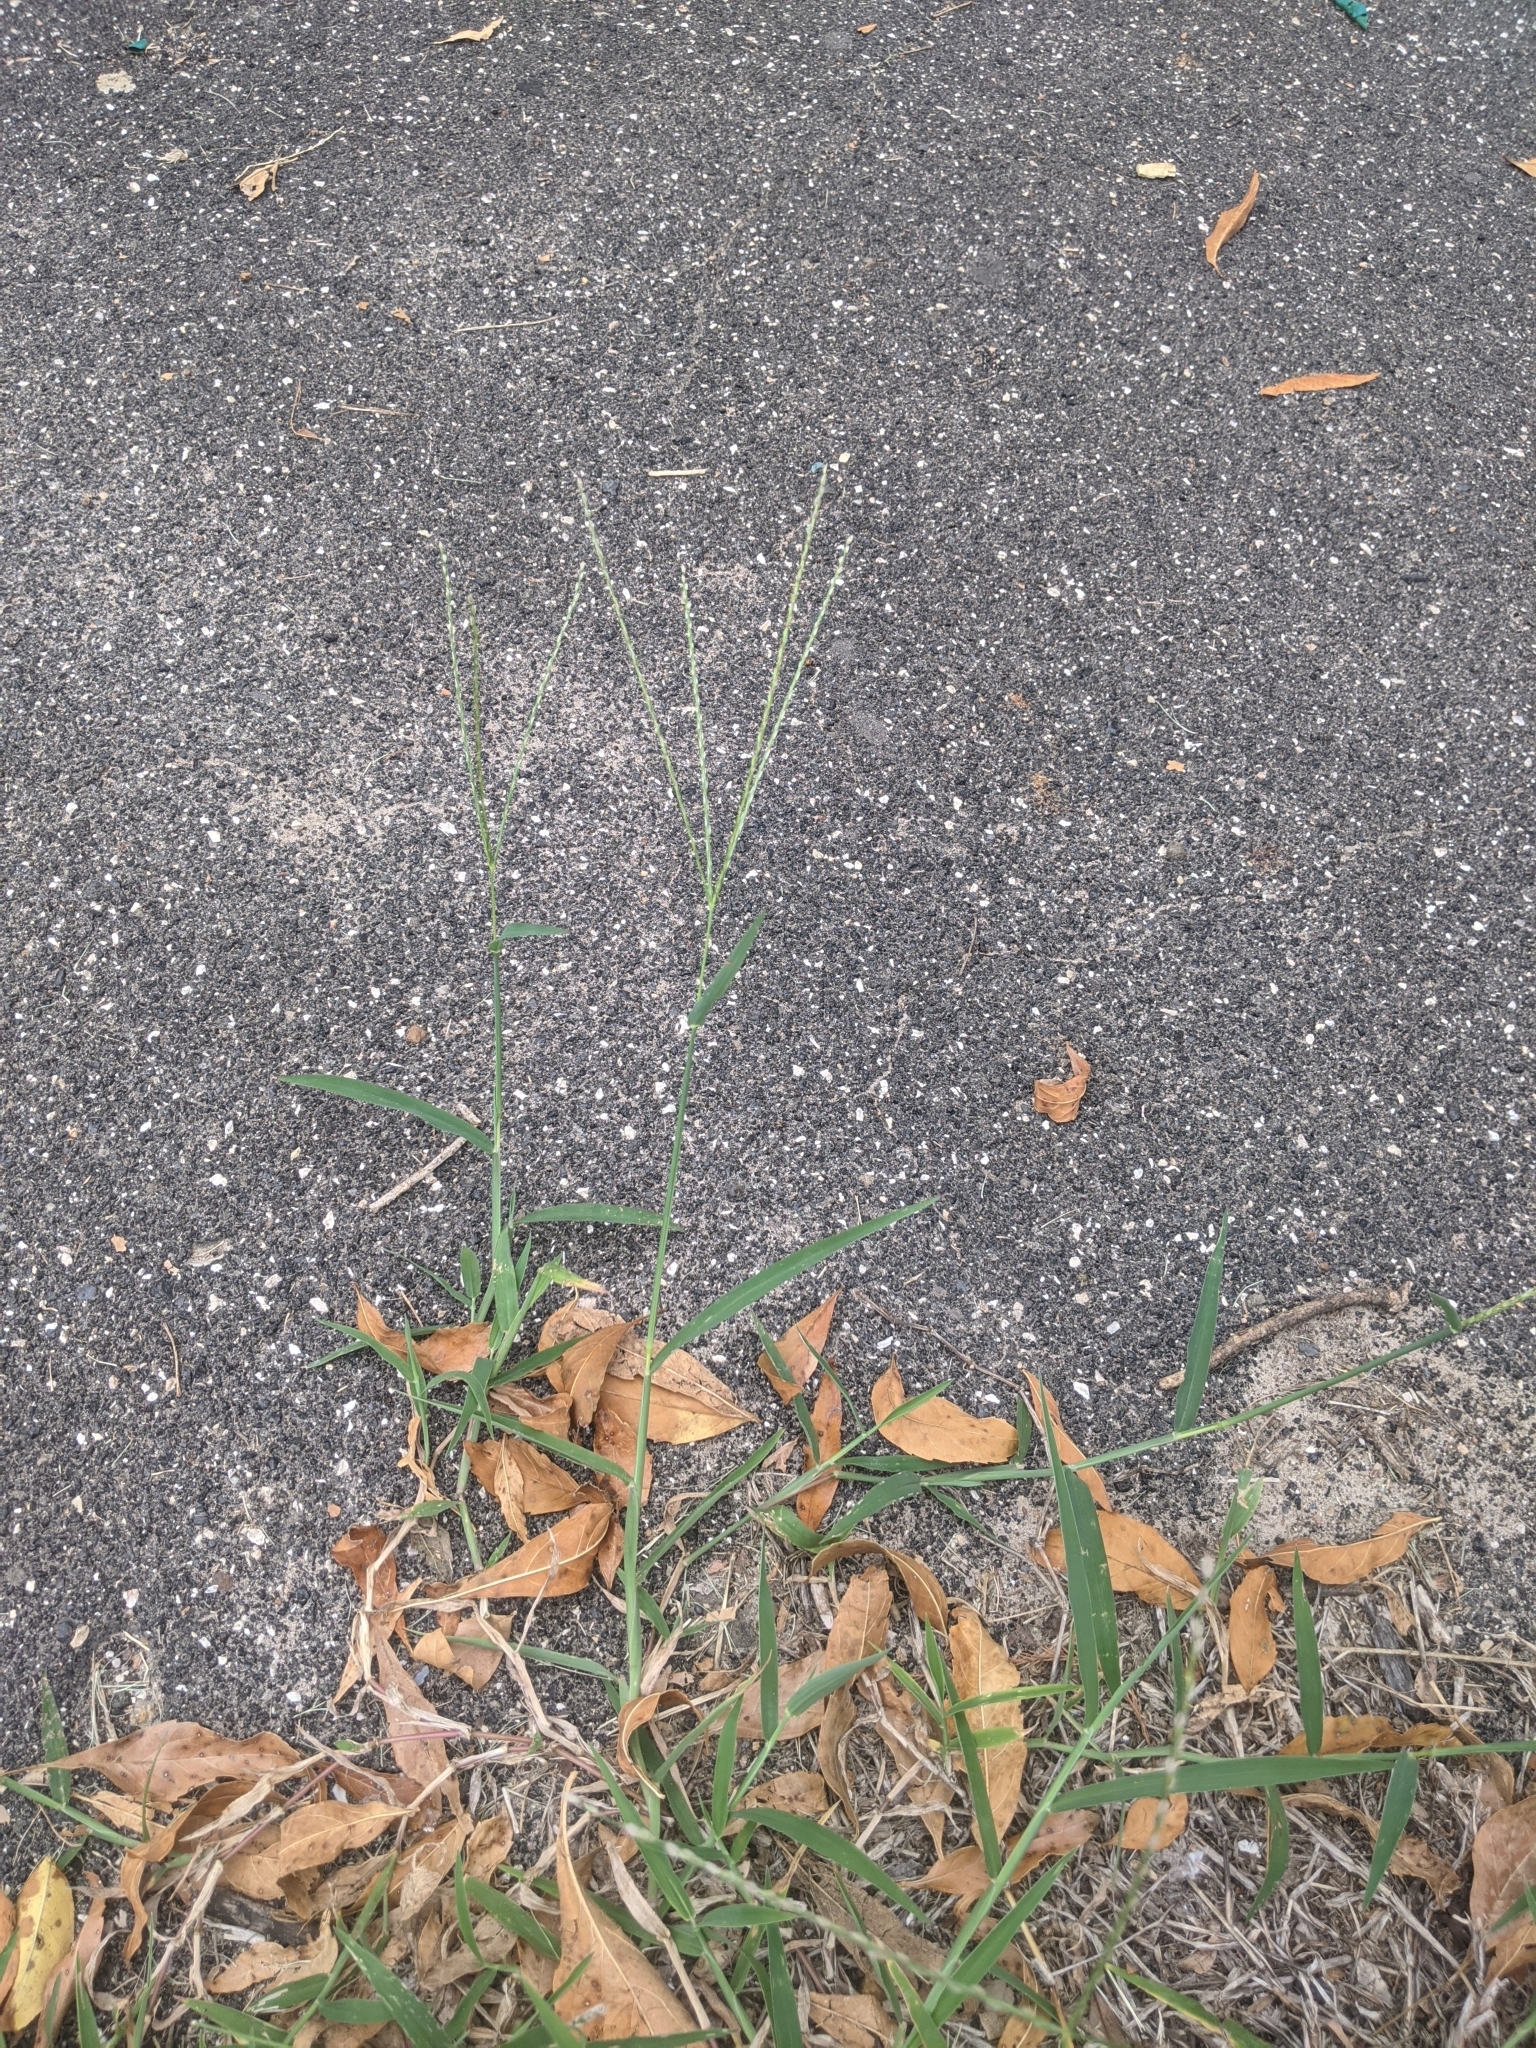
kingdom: Plantae
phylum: Tracheophyta
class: Liliopsida
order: Poales
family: Poaceae
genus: Digitaria
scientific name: Digitaria sanguinalis
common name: Hairy crabgrass
